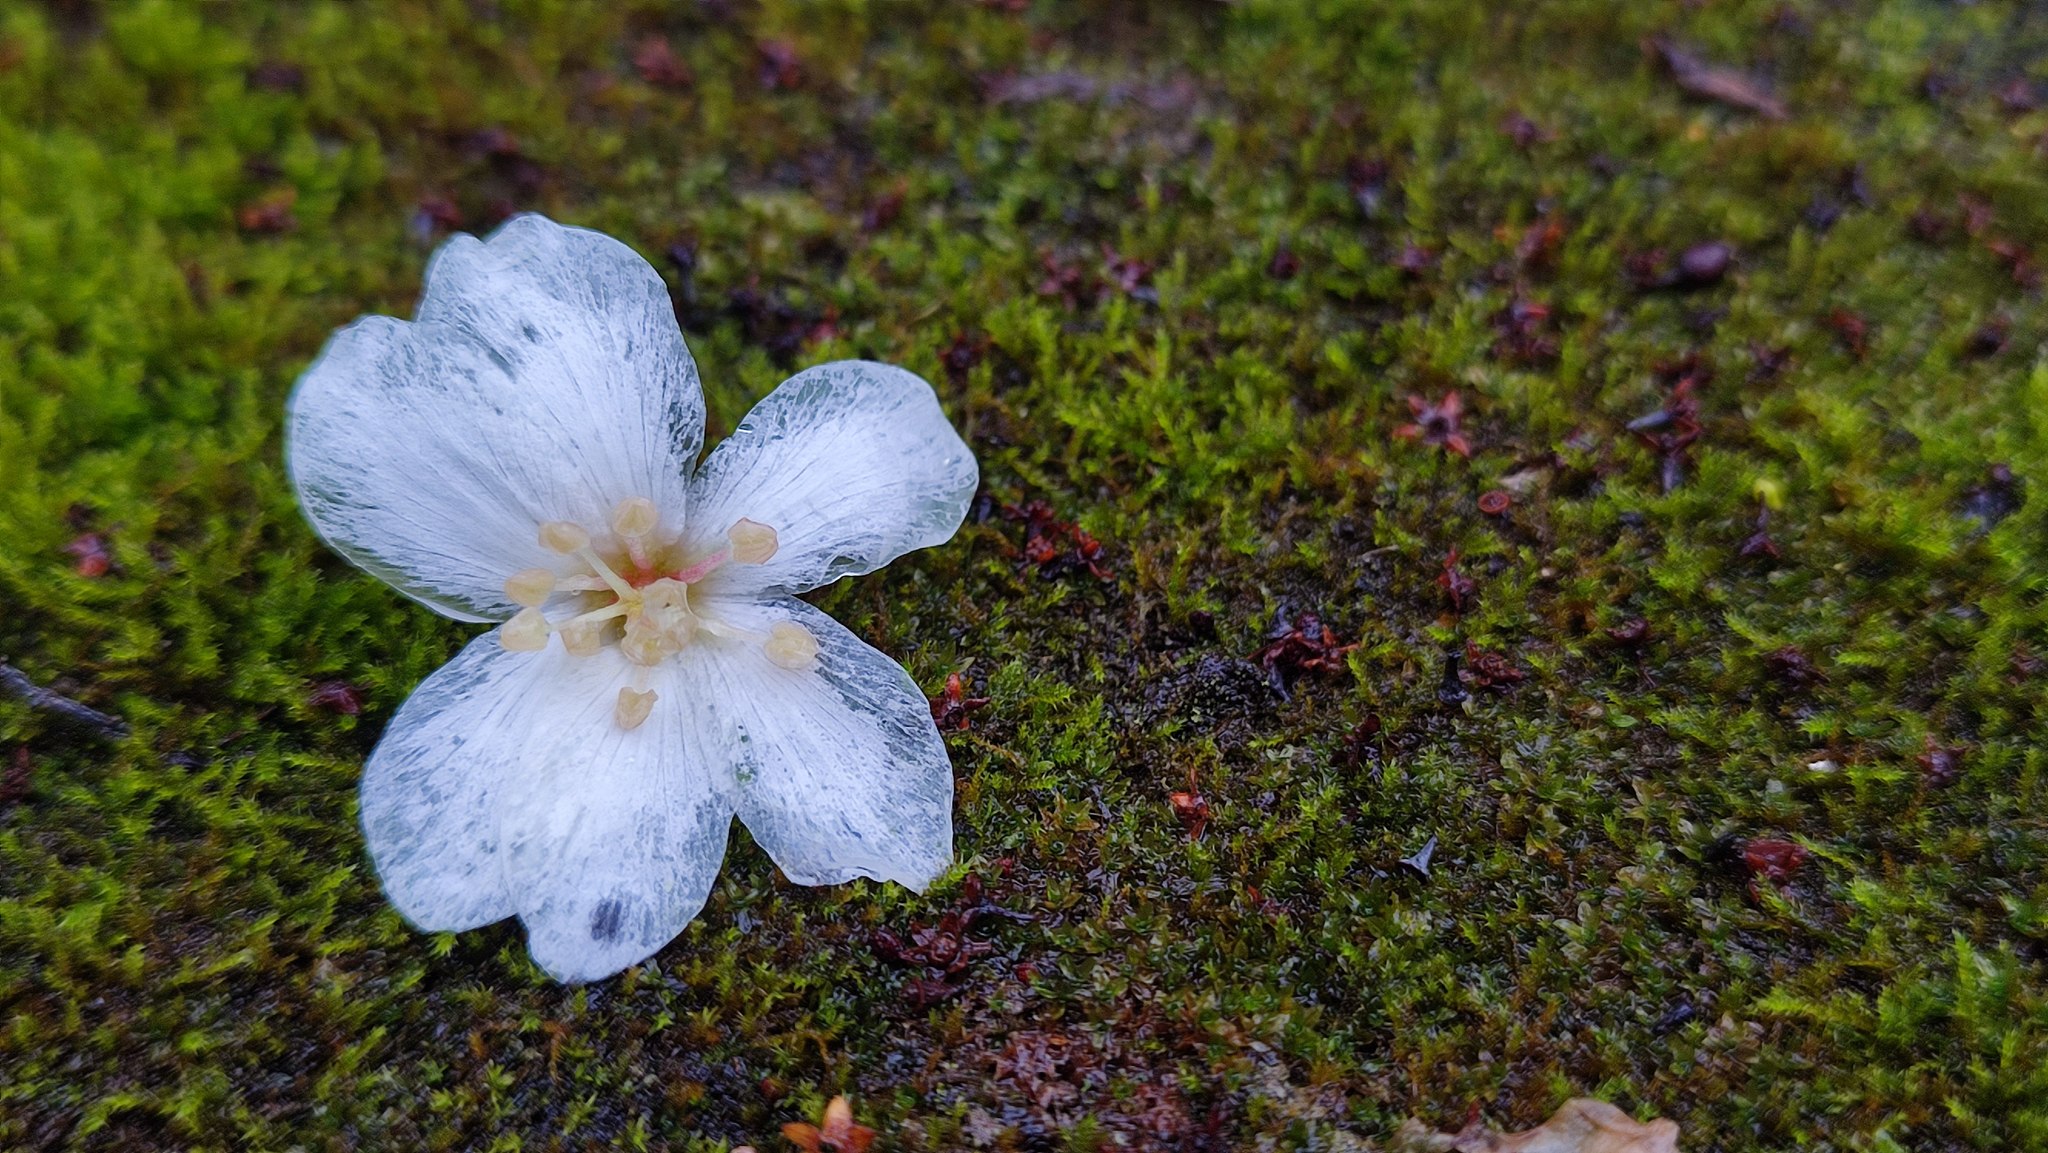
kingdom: Plantae
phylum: Tracheophyta
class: Magnoliopsida
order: Malpighiales
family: Euphorbiaceae
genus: Vernicia
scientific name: Vernicia montana
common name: Mu oil tree
